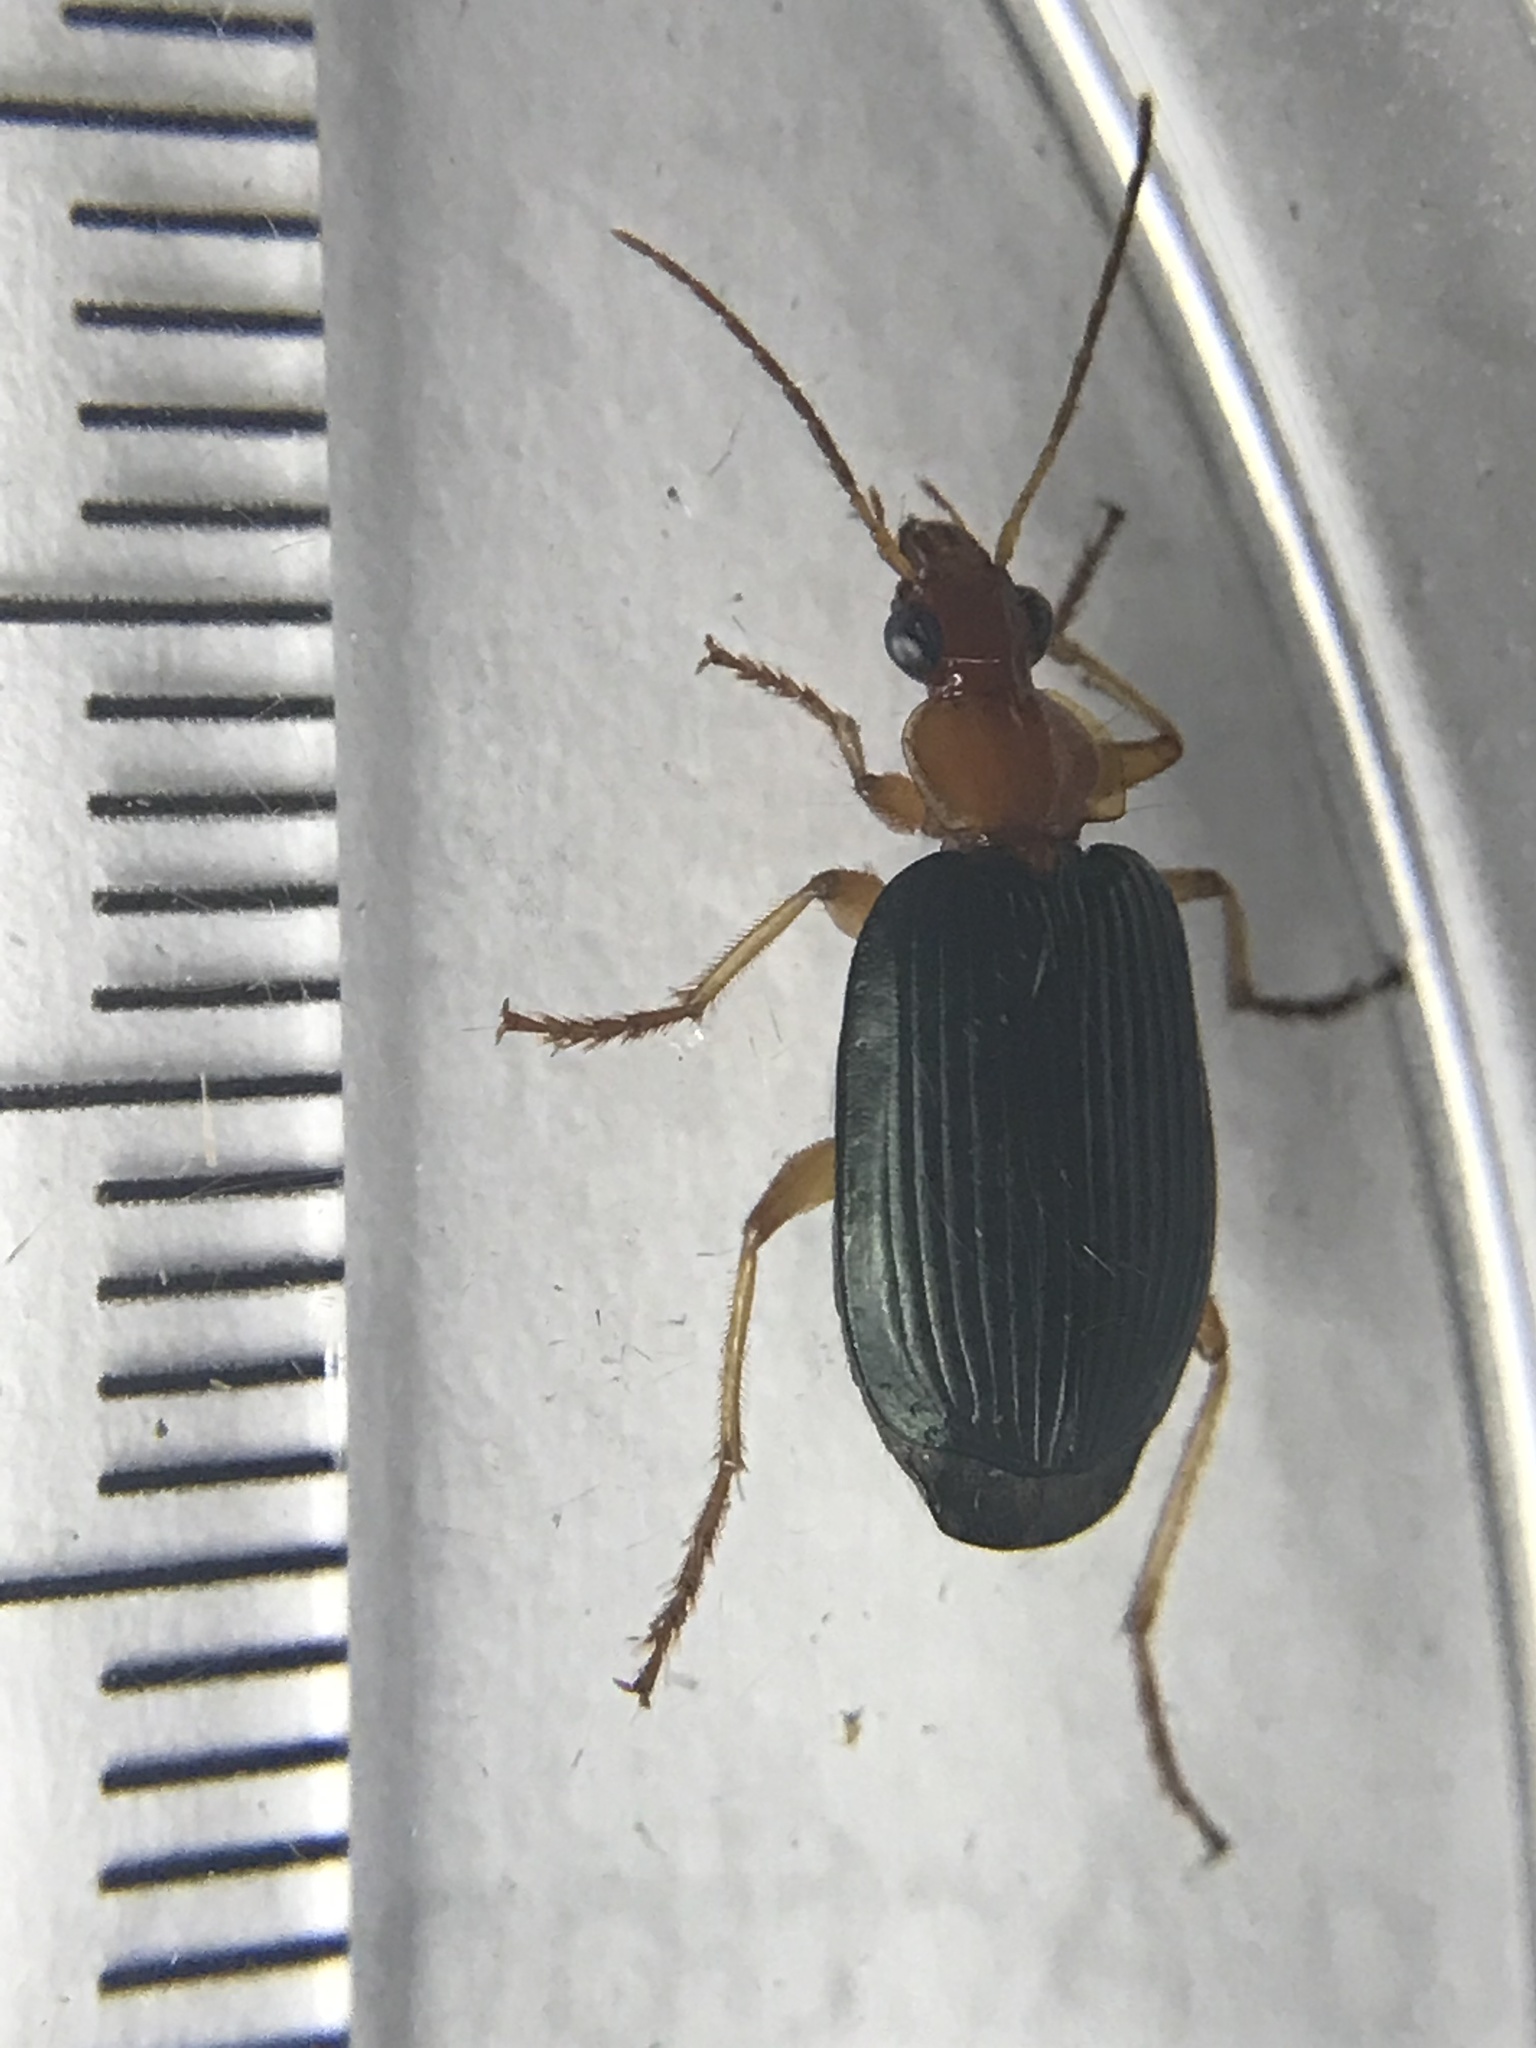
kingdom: Animalia
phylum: Arthropoda
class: Insecta
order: Coleoptera
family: Carabidae
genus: Lebia
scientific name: Lebia grandis
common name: Large foliage ground beetle
